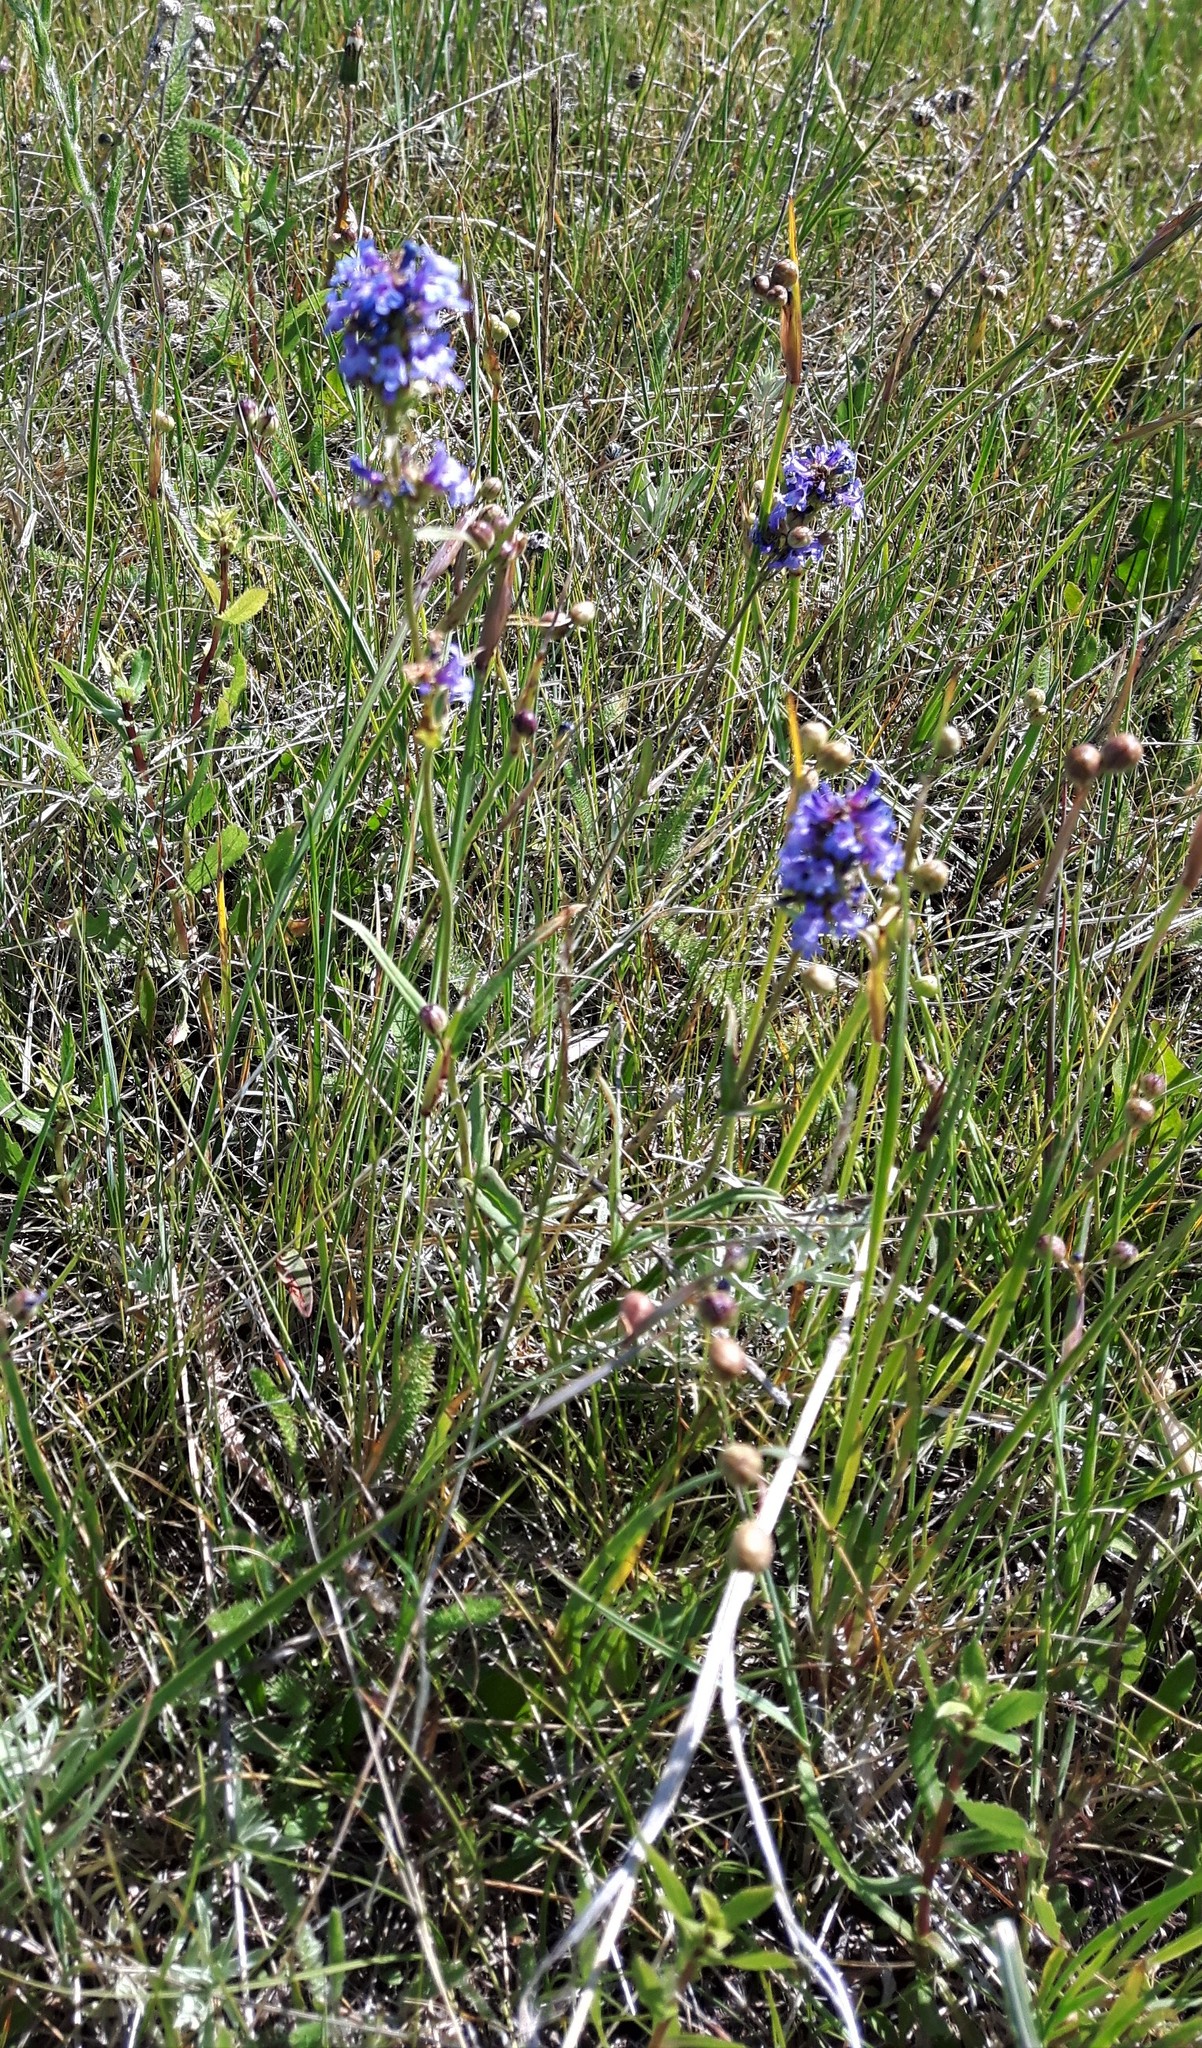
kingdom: Plantae
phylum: Tracheophyta
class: Magnoliopsida
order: Lamiales
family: Plantaginaceae
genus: Penstemon
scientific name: Penstemon procerus
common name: Small-flower penstemon
